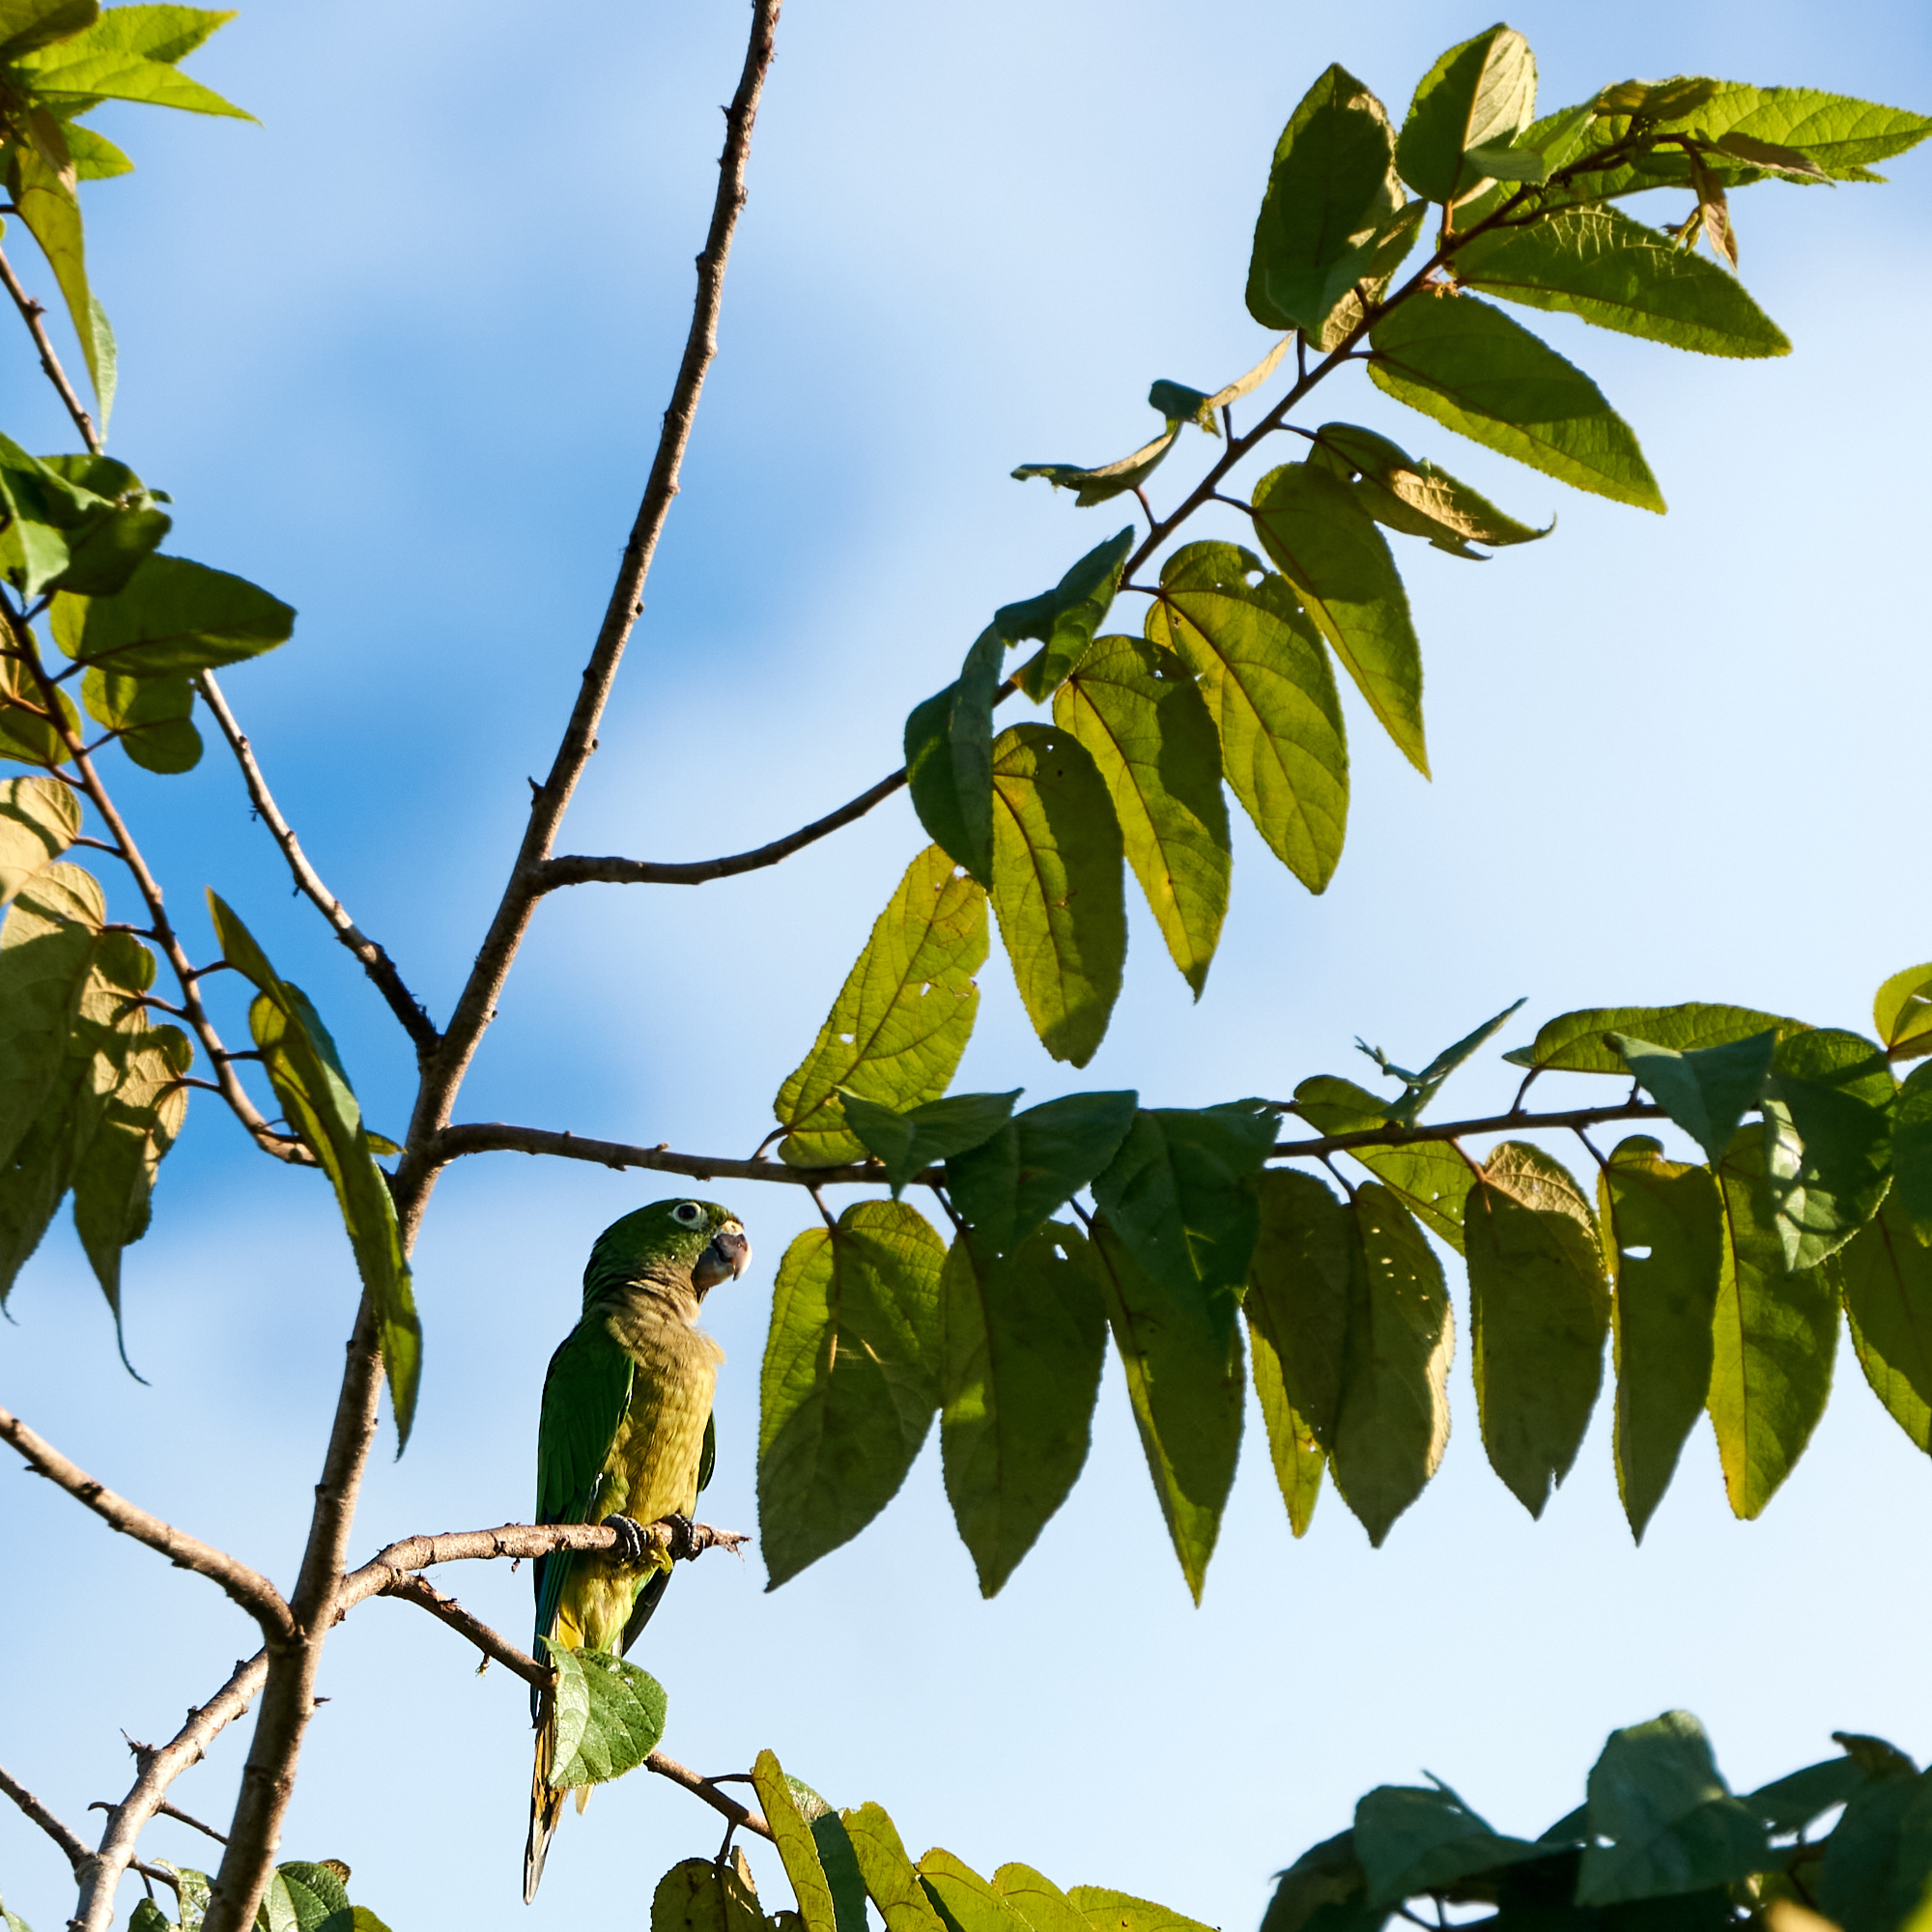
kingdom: Animalia
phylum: Chordata
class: Aves
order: Psittaciformes
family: Psittacidae
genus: Aratinga
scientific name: Aratinga nana
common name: Olive-throated parakeet
